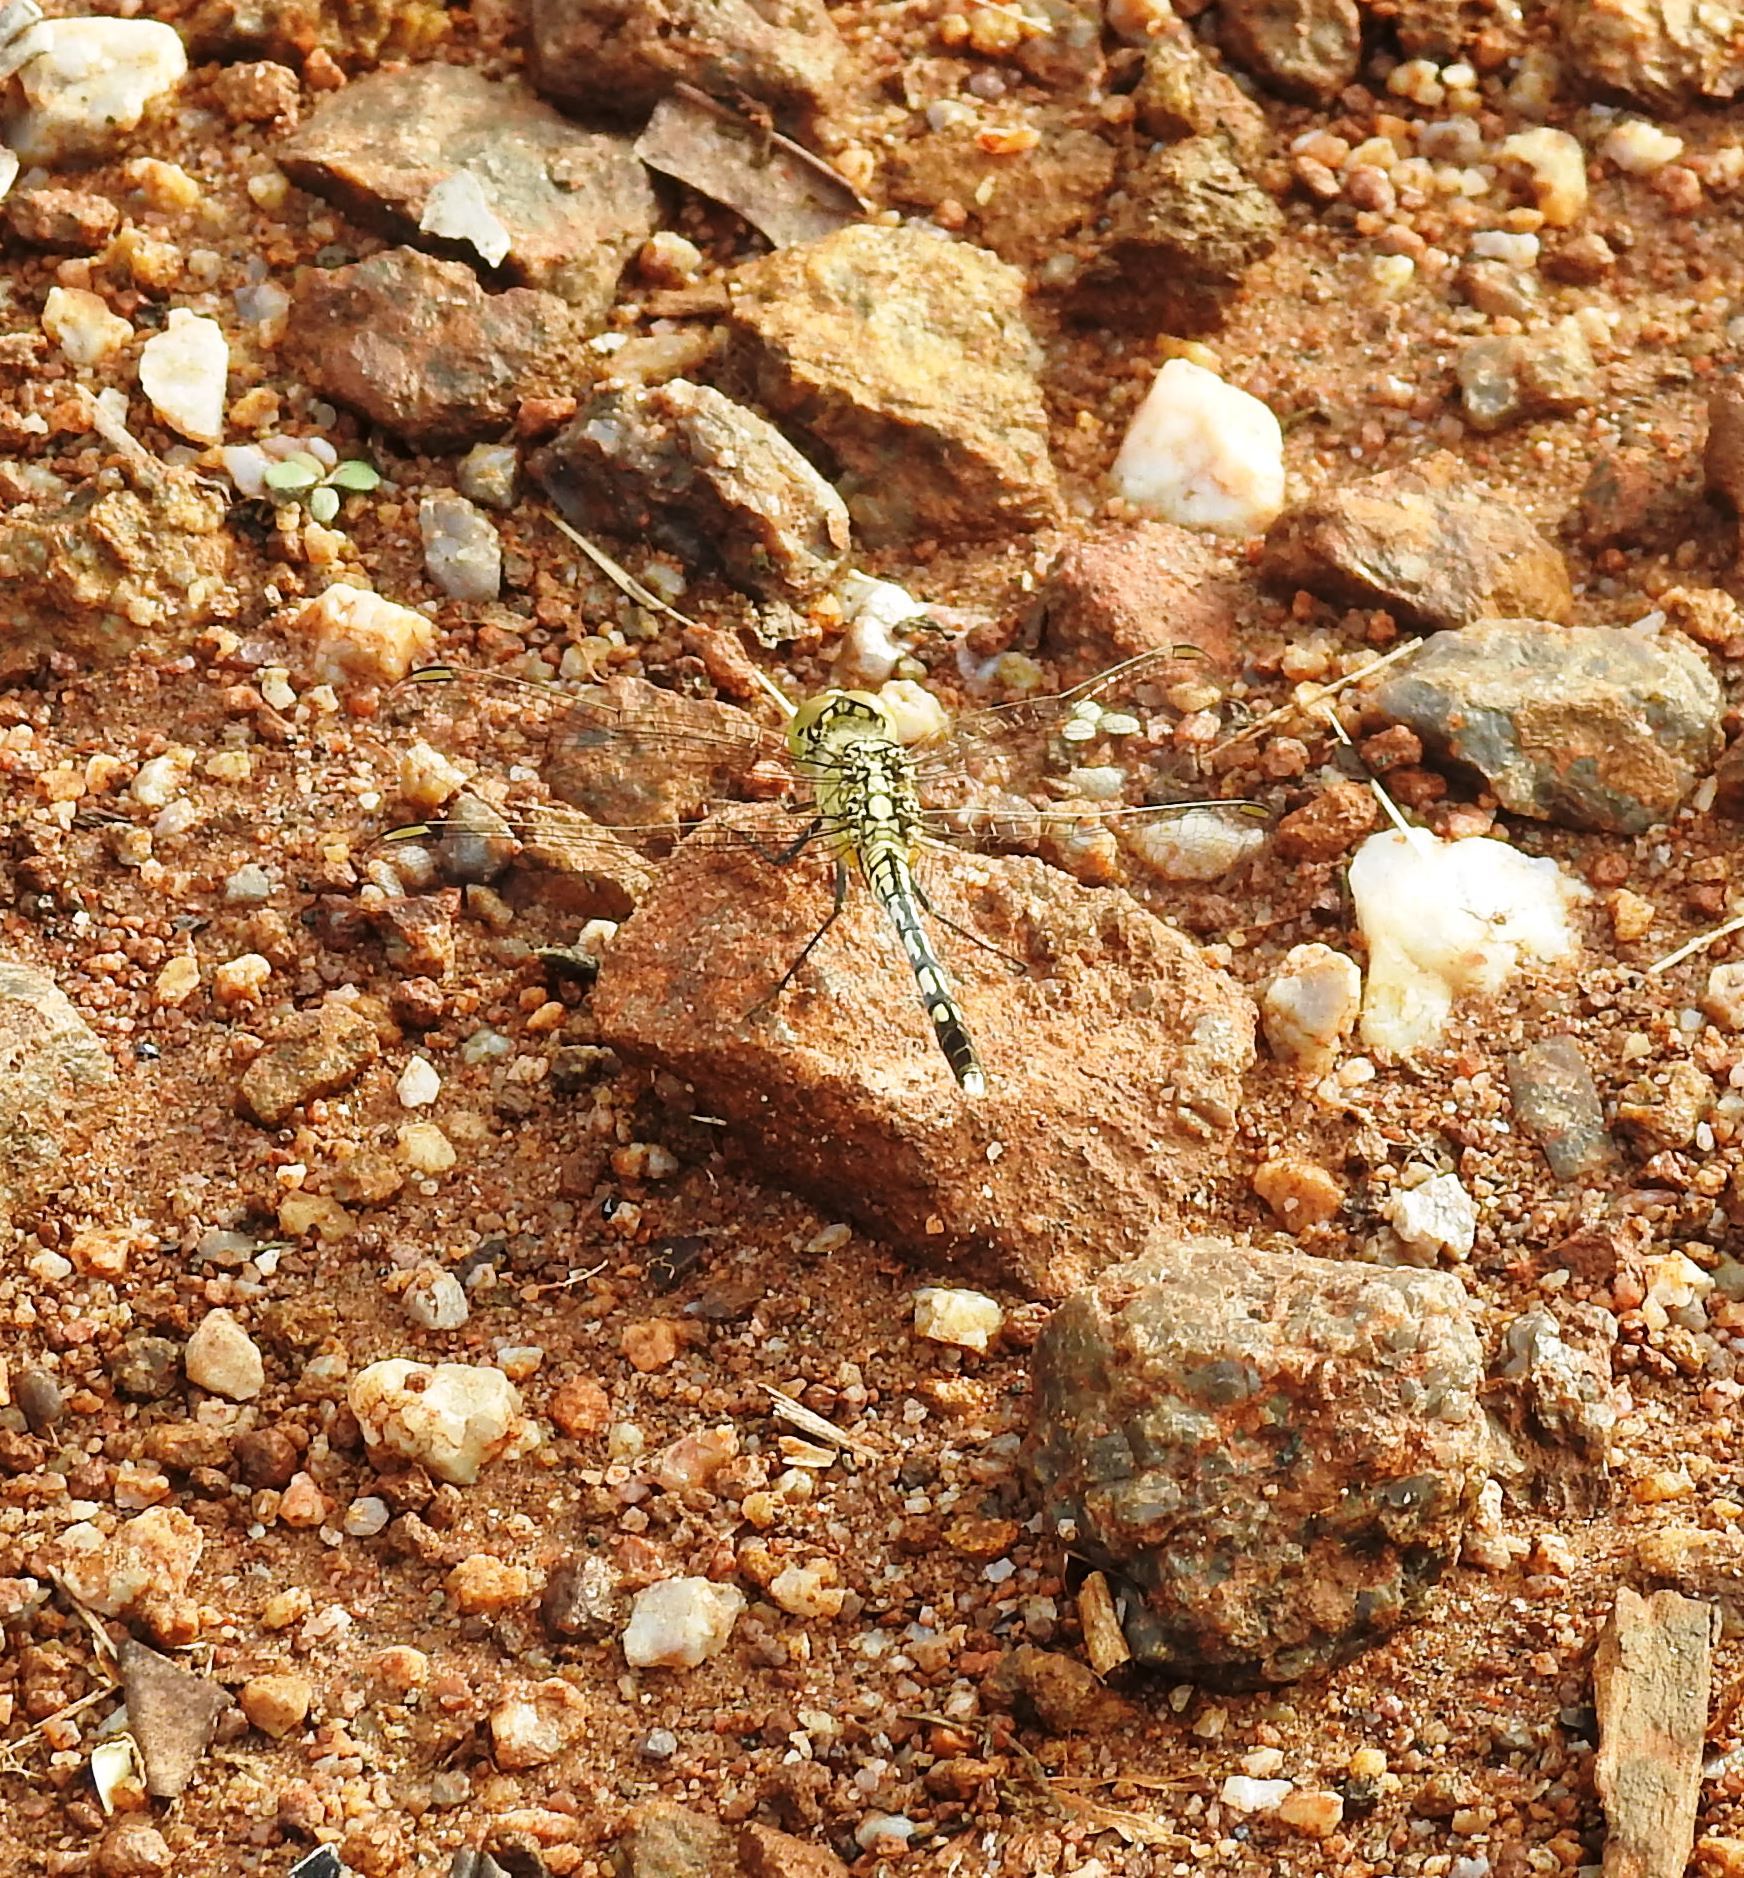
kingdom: Animalia
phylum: Arthropoda
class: Insecta
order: Odonata
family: Libellulidae
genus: Diplacodes
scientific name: Diplacodes trivialis
